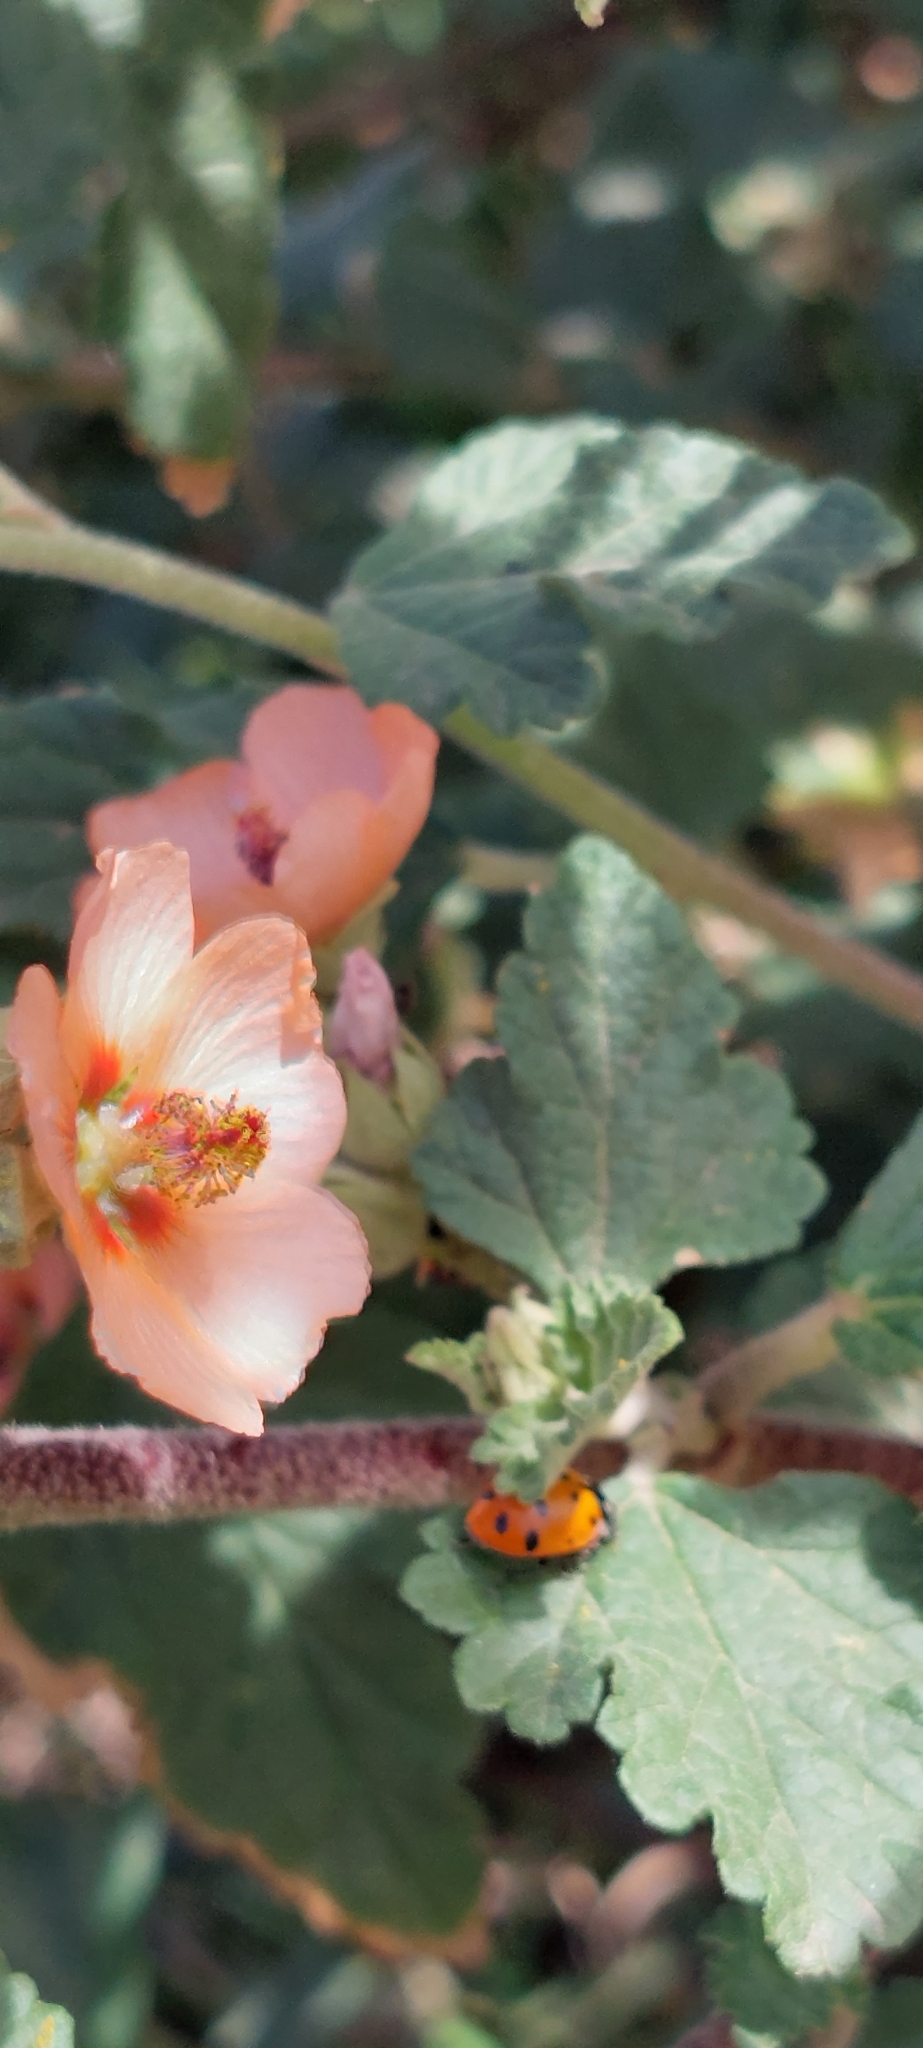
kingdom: Animalia
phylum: Arthropoda
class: Insecta
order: Coleoptera
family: Coccinellidae
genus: Hippodamia
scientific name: Hippodamia convergens
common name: Convergent lady beetle
